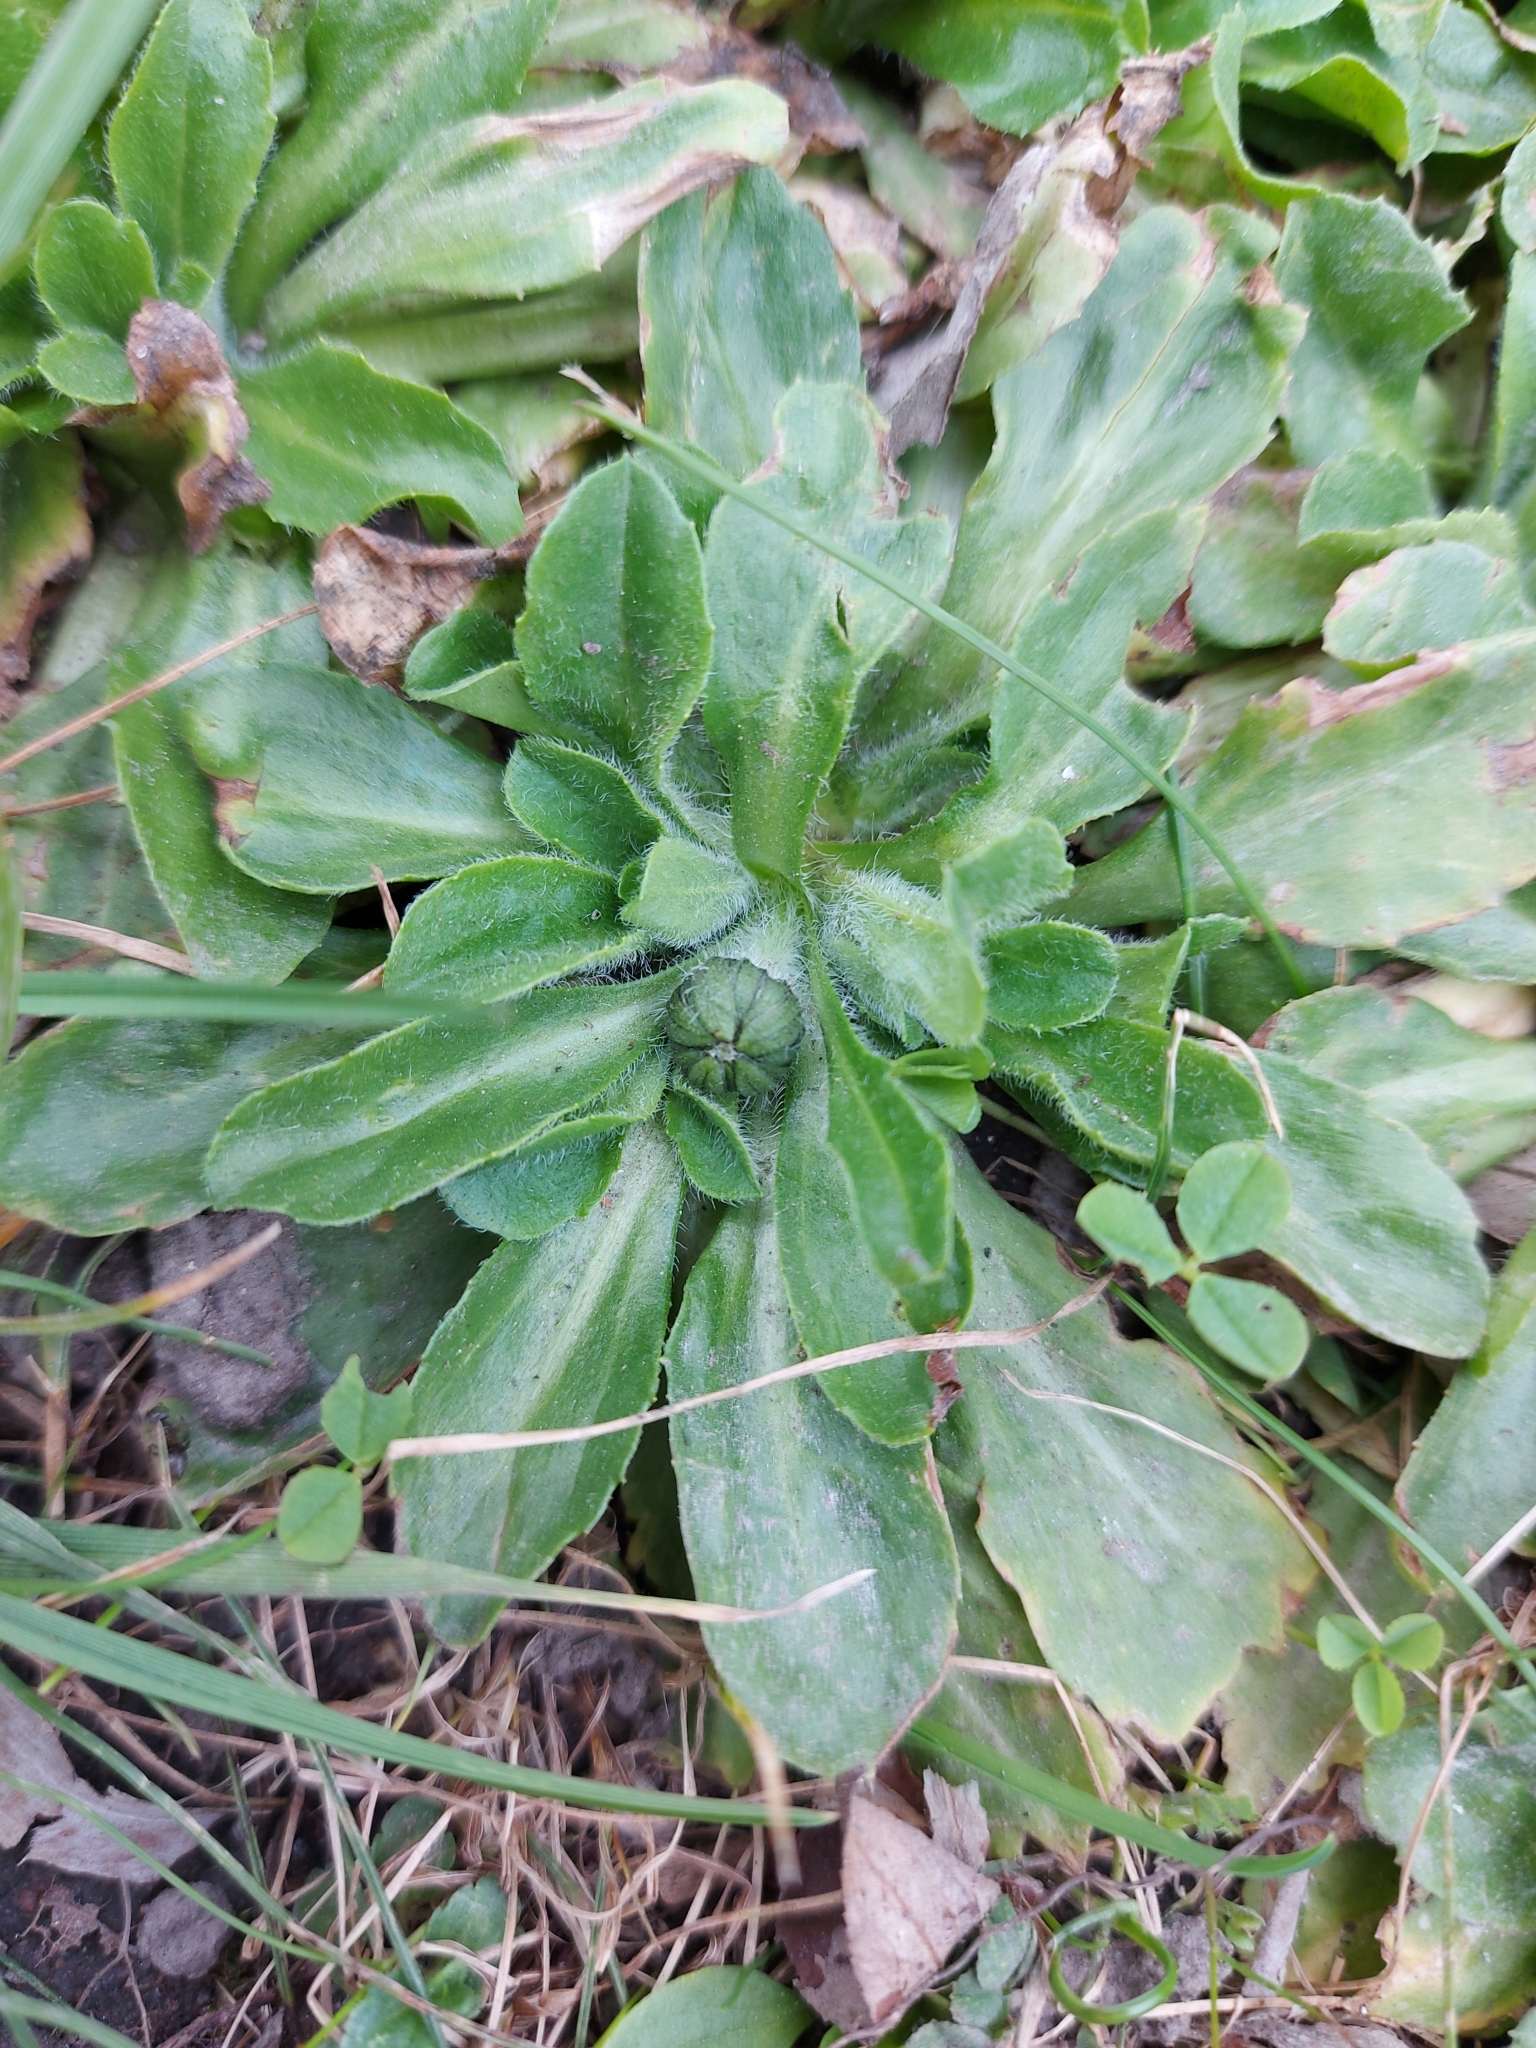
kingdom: Plantae
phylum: Tracheophyta
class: Magnoliopsida
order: Asterales
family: Asteraceae
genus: Bellis
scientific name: Bellis perennis
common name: Lawndaisy
